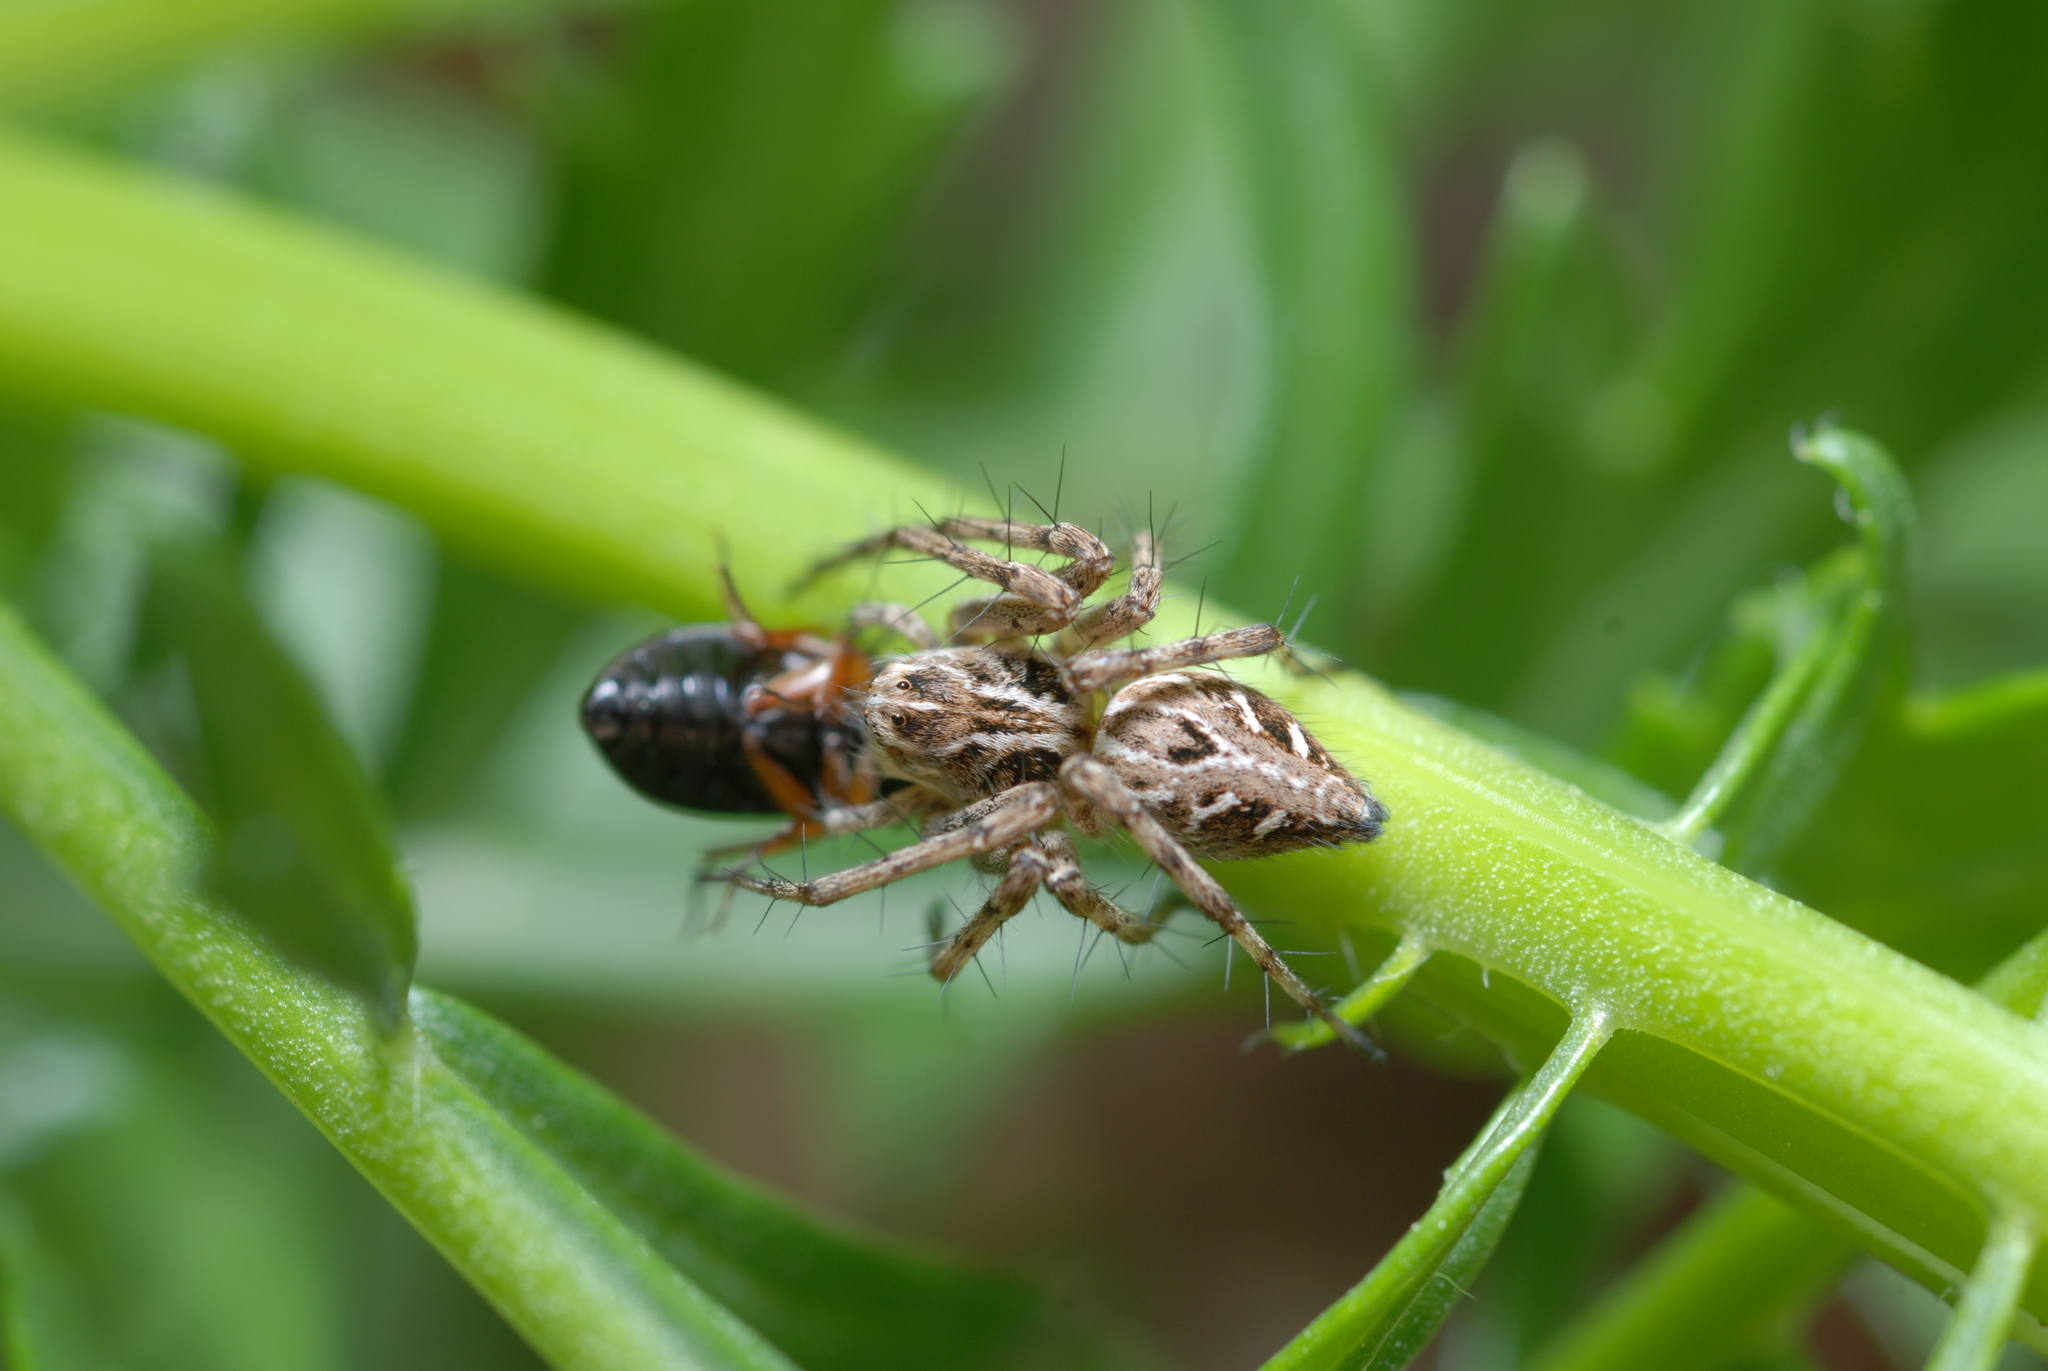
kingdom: Animalia
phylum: Arthropoda
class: Arachnida
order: Araneae
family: Oxyopidae
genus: Oxyopes
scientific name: Oxyopes heterophthalmus
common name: Lynx spider
